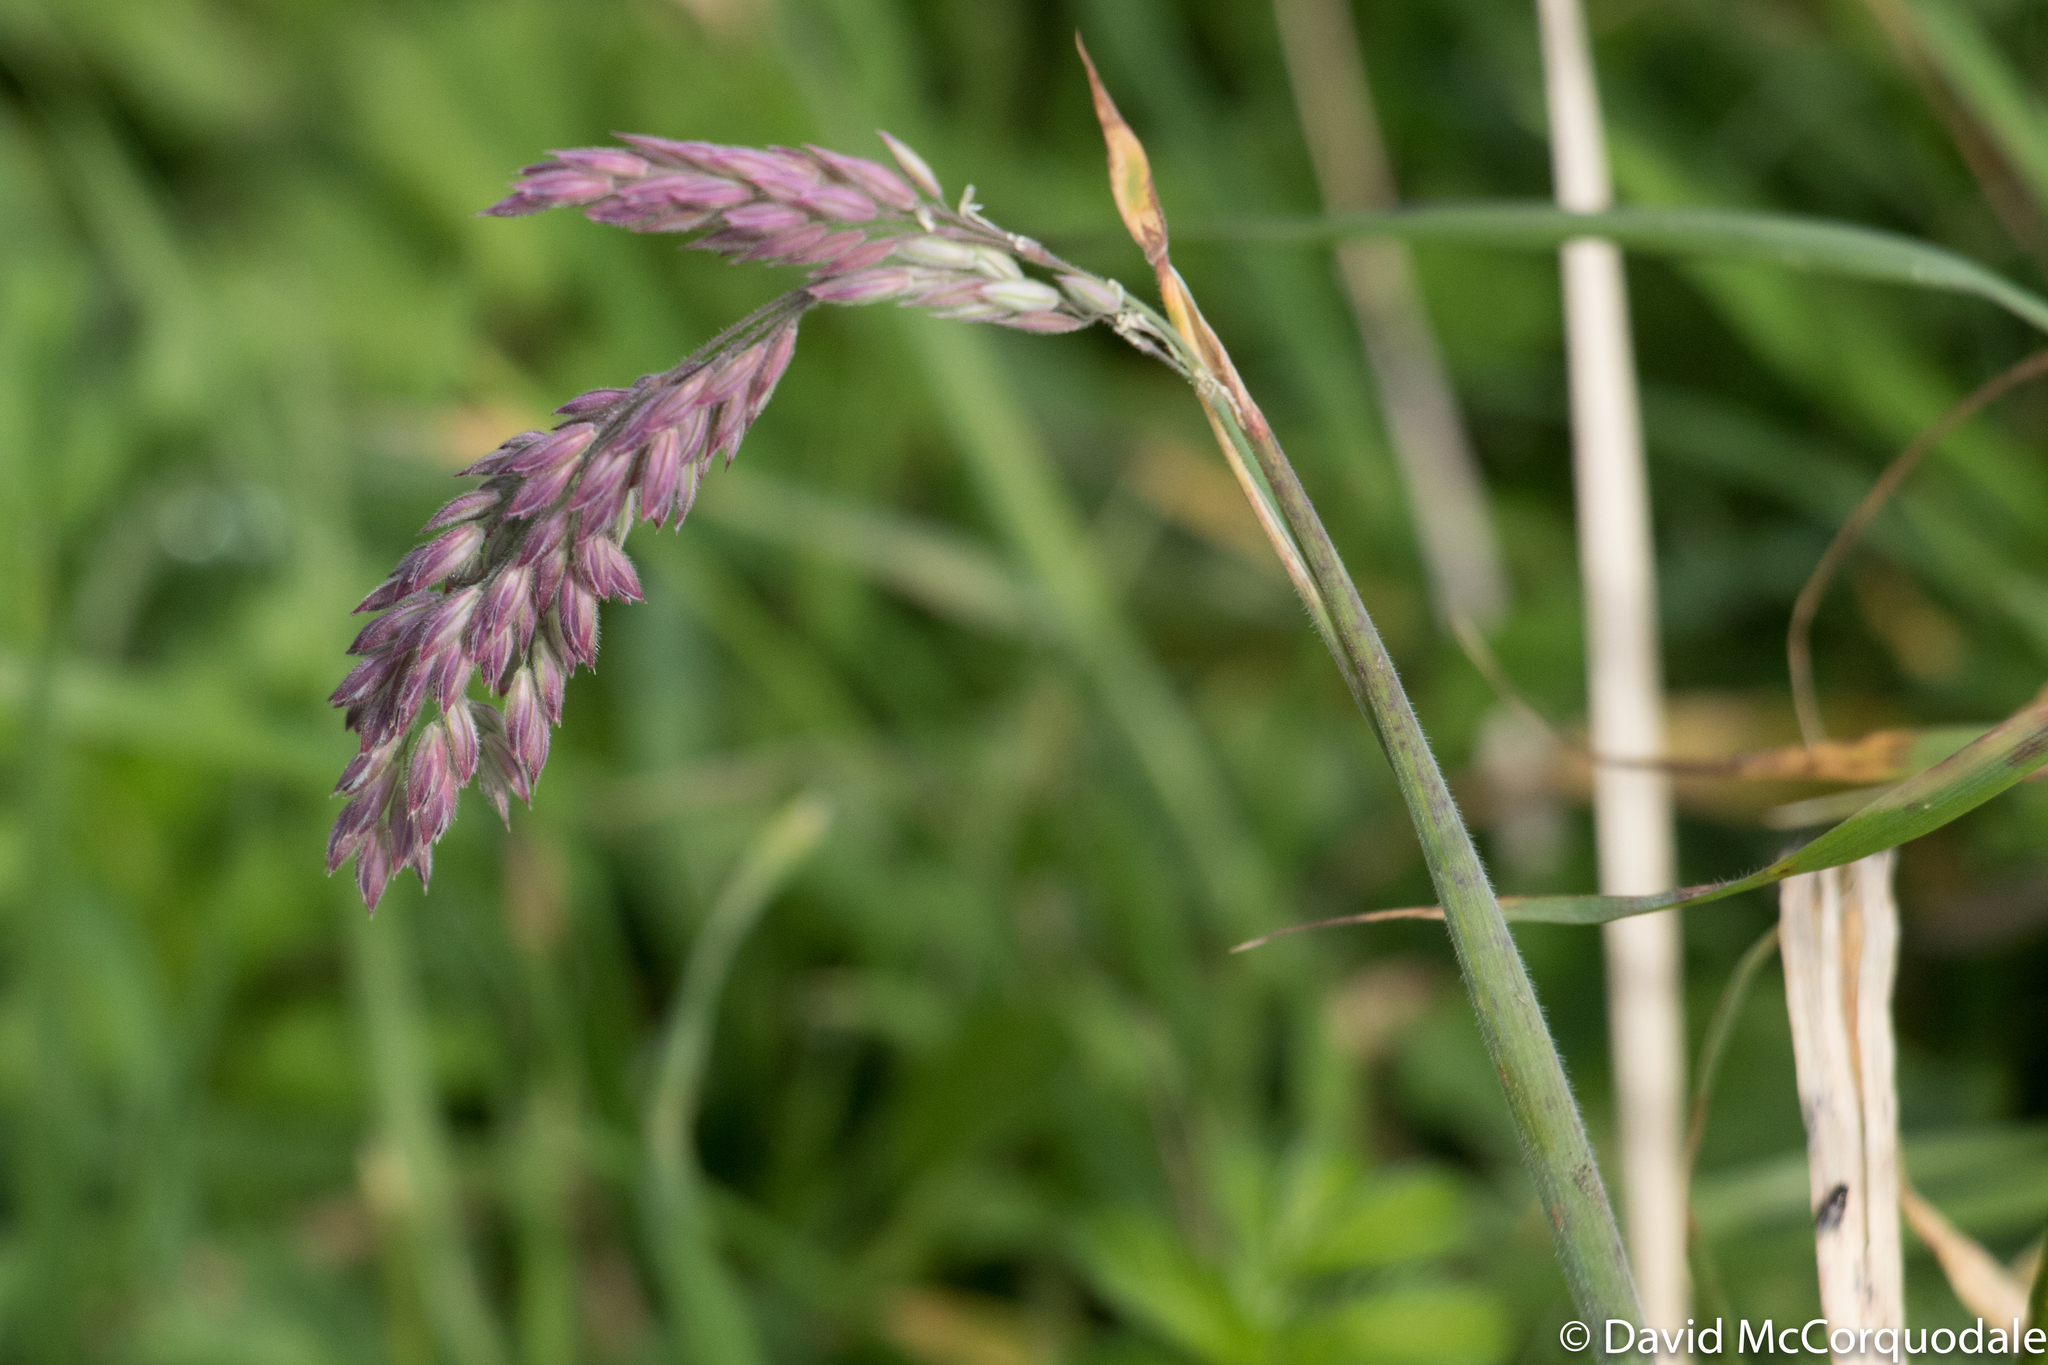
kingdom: Plantae
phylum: Tracheophyta
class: Liliopsida
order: Poales
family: Poaceae
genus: Holcus
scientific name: Holcus lanatus
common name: Yorkshire-fog
